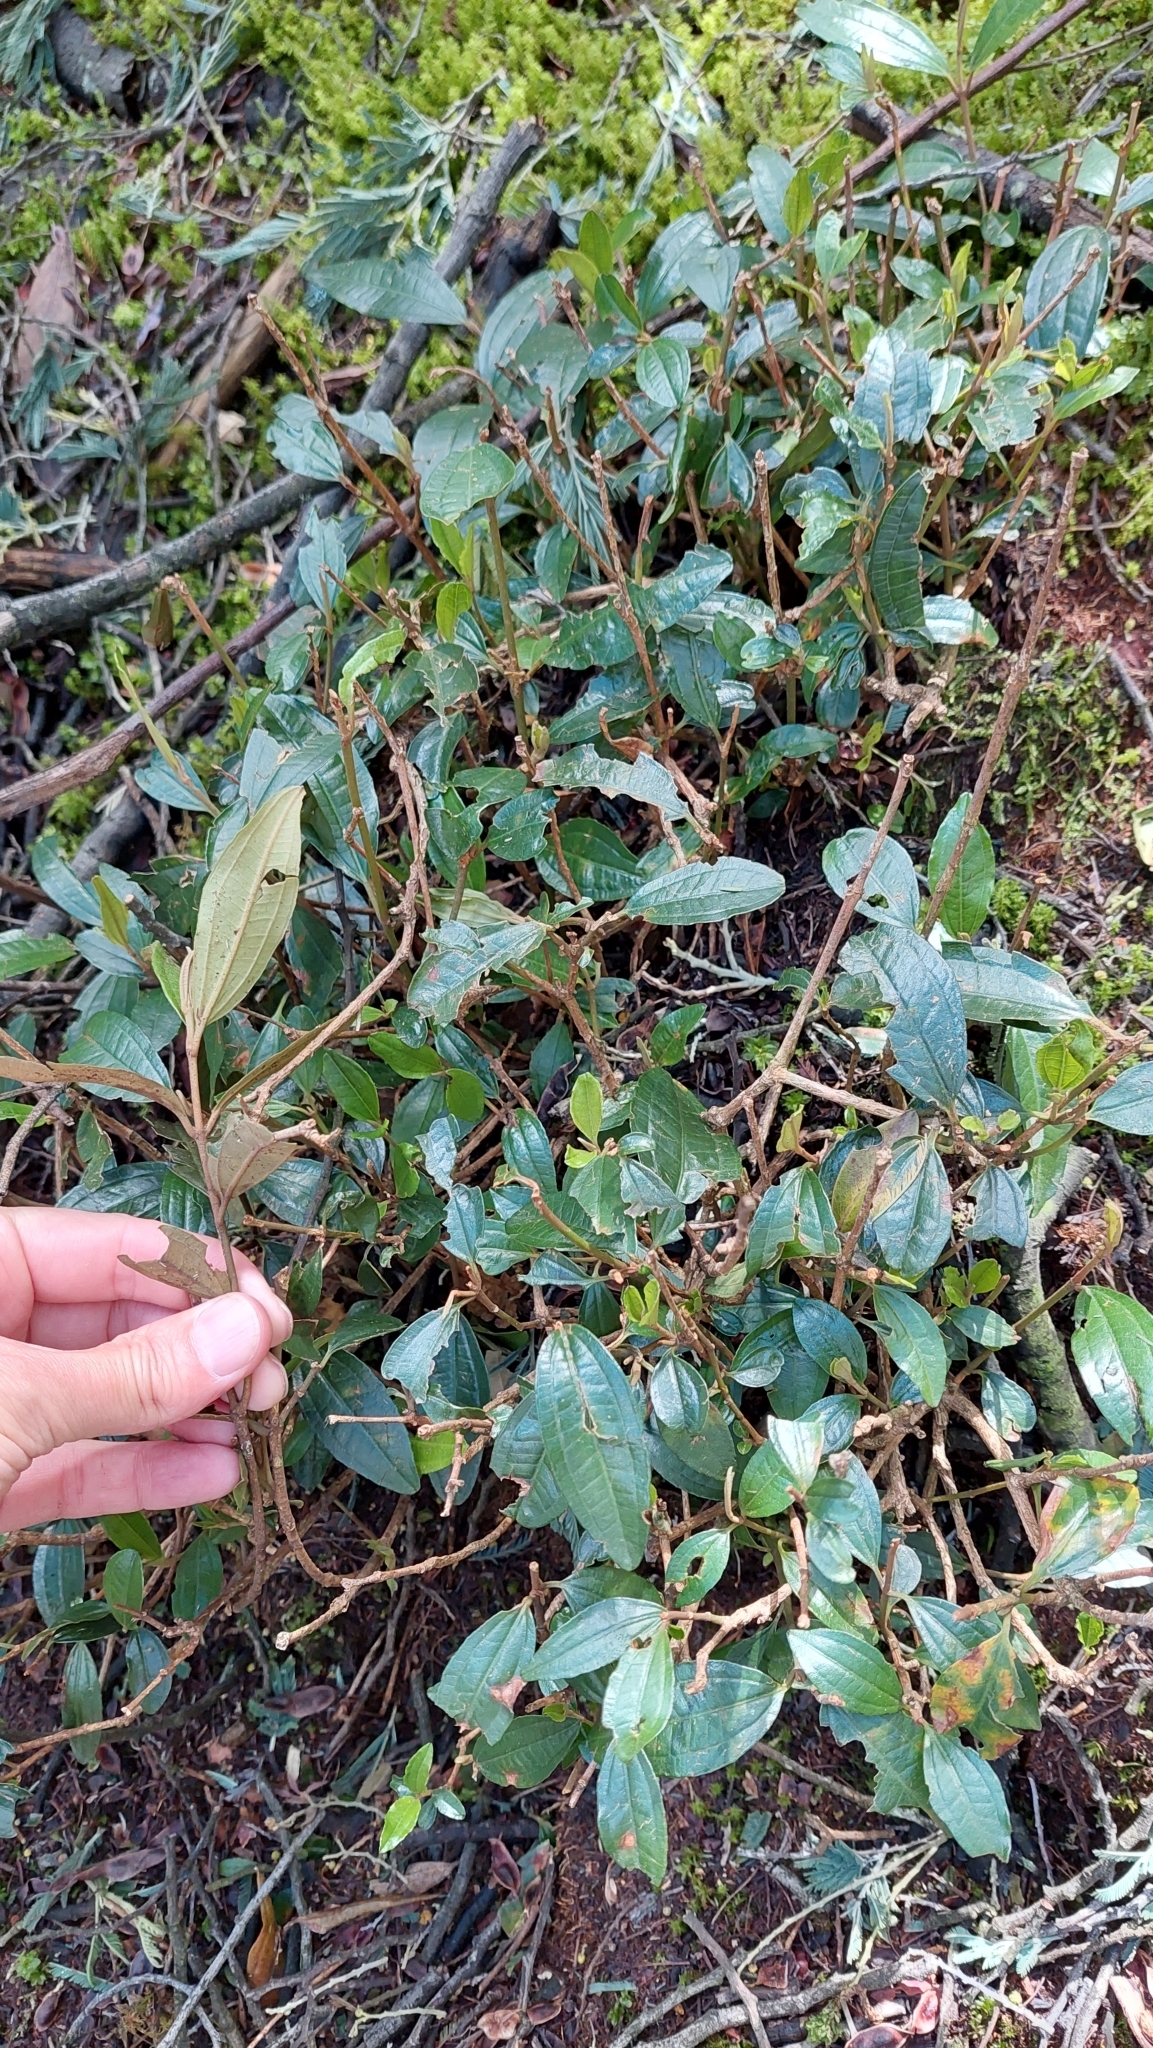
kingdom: Plantae
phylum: Tracheophyta
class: Magnoliopsida
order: Myrtales
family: Melastomataceae
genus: Miconia
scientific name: Miconia squamulosa
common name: Squamulose maya
